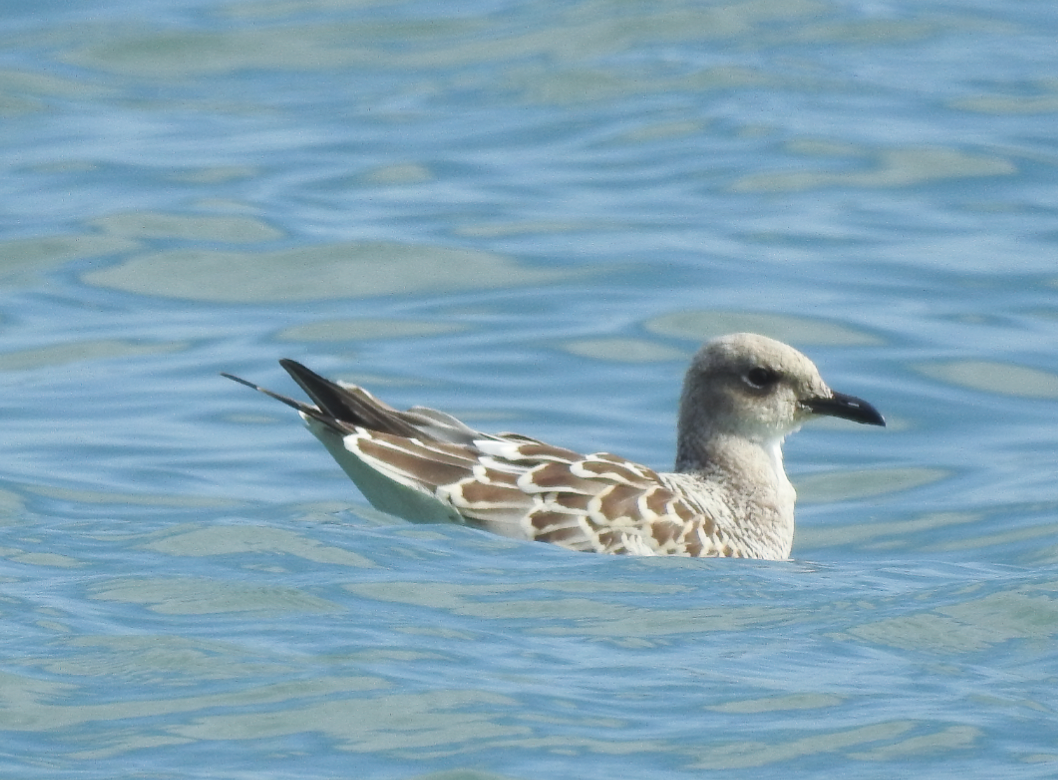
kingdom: Animalia
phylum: Chordata
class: Aves
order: Charadriiformes
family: Laridae
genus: Ichthyaetus
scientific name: Ichthyaetus melanocephalus
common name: Mediterranean gull
